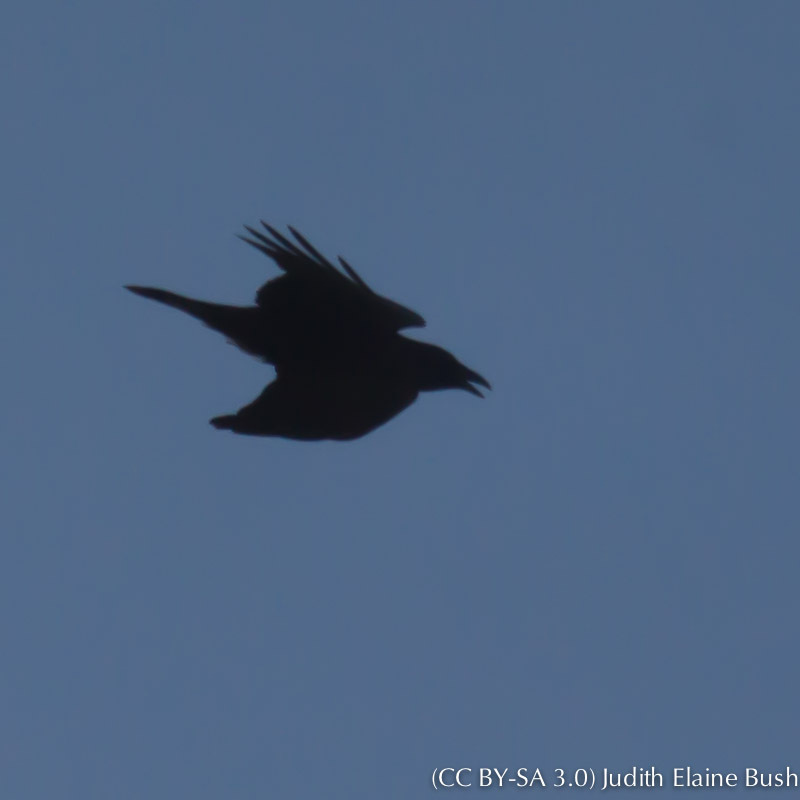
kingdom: Animalia
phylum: Chordata
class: Aves
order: Passeriformes
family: Corvidae
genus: Corvus
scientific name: Corvus brachyrhynchos
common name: American crow
